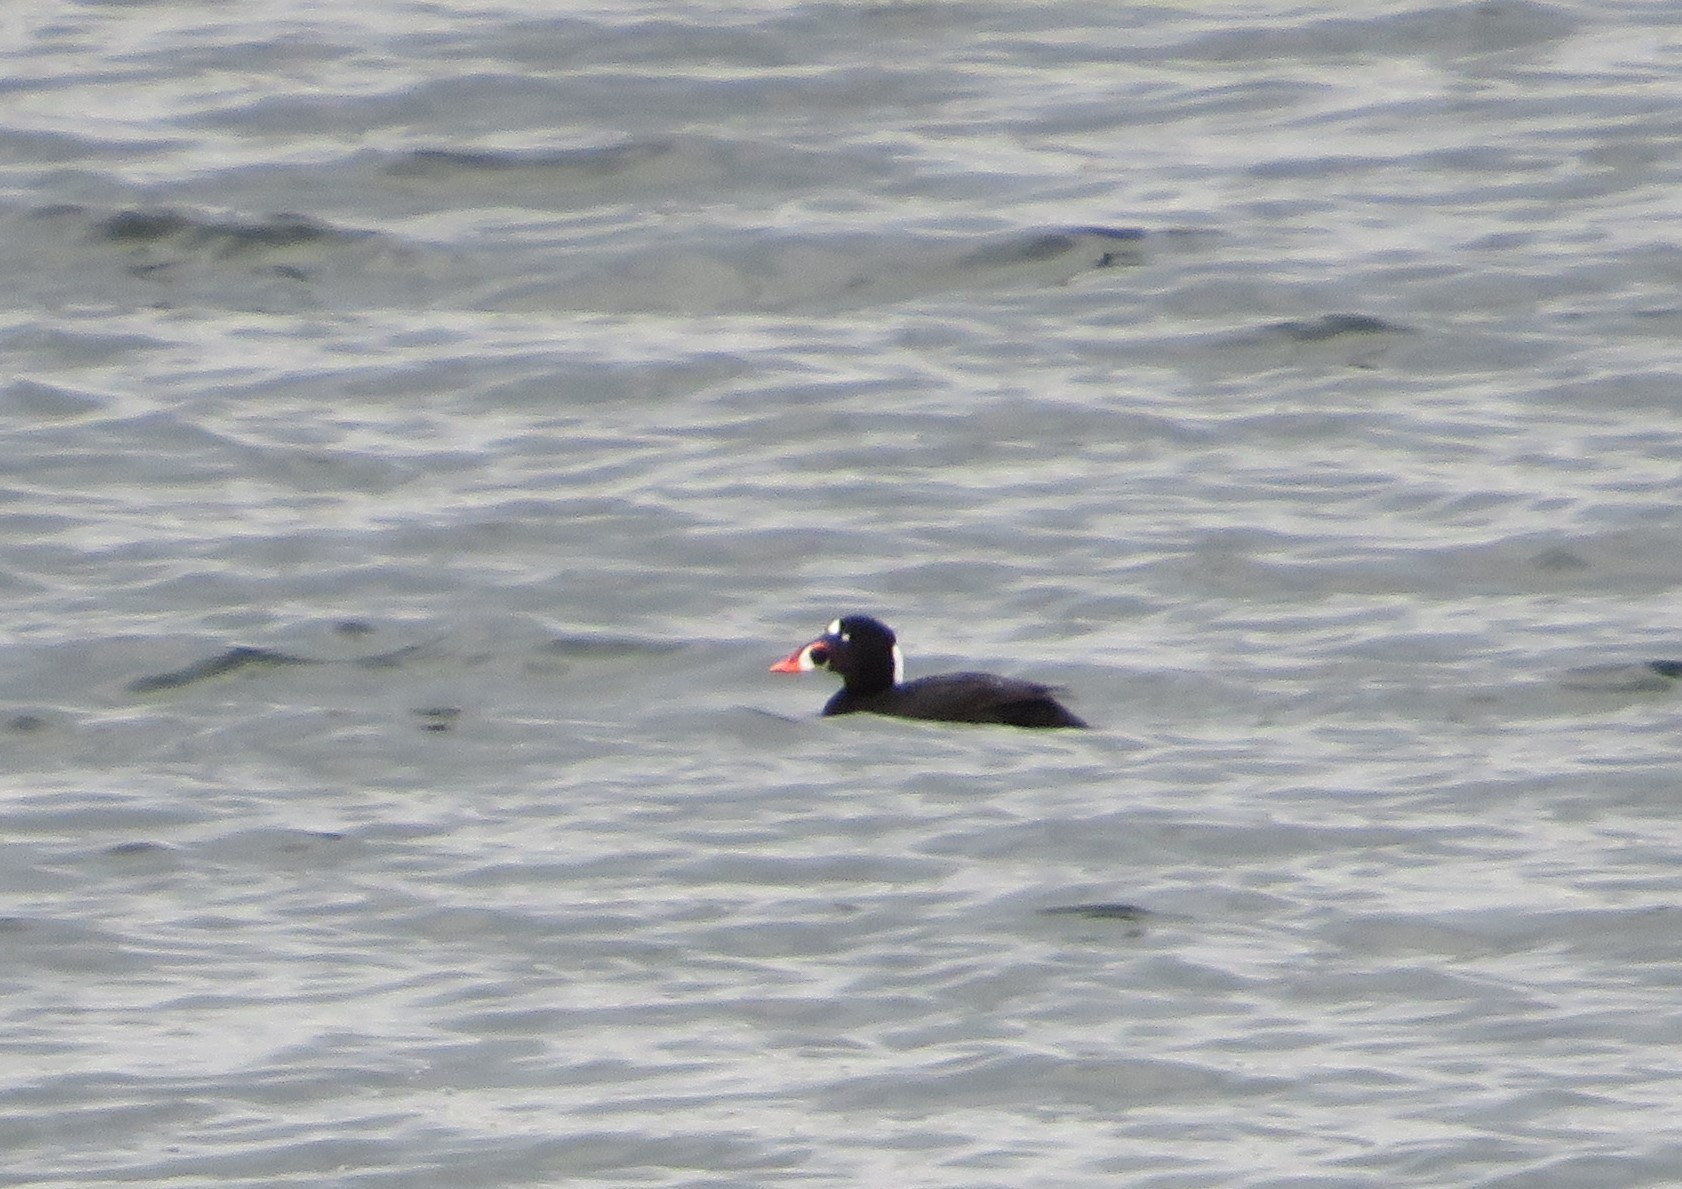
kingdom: Animalia
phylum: Chordata
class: Aves
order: Anseriformes
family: Anatidae
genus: Melanitta
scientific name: Melanitta perspicillata
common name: Surf scoter
